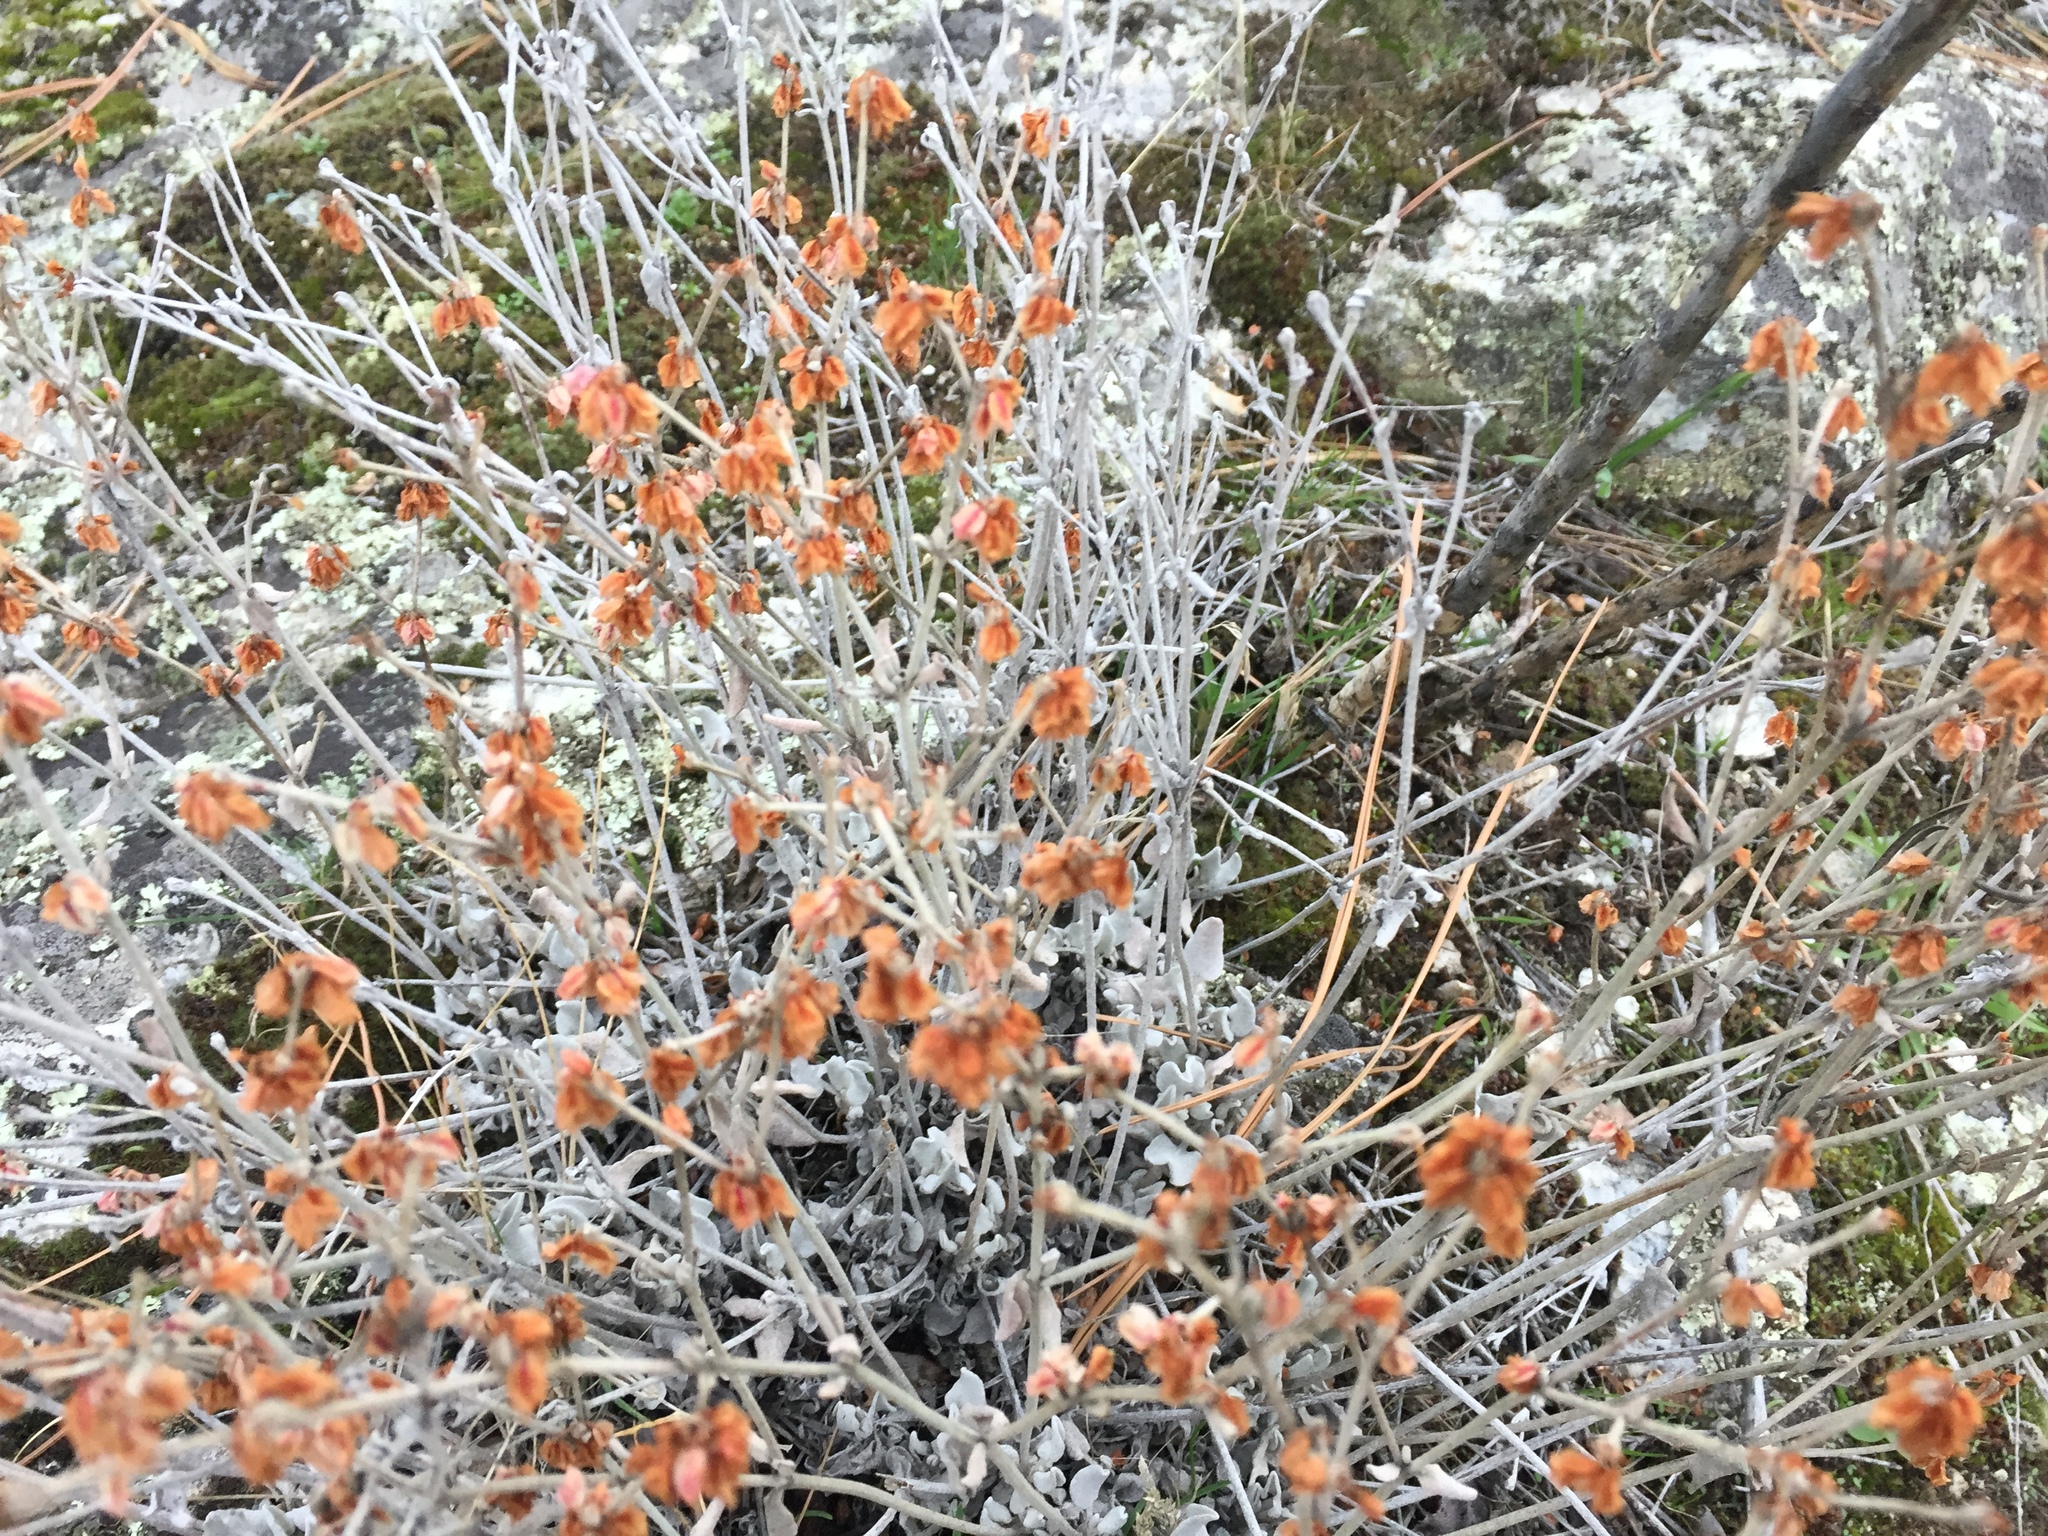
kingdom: Plantae
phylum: Tracheophyta
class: Magnoliopsida
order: Caryophyllales
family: Polygonaceae
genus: Eriogonum
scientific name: Eriogonum niveum
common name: Snow wild buckwheat
